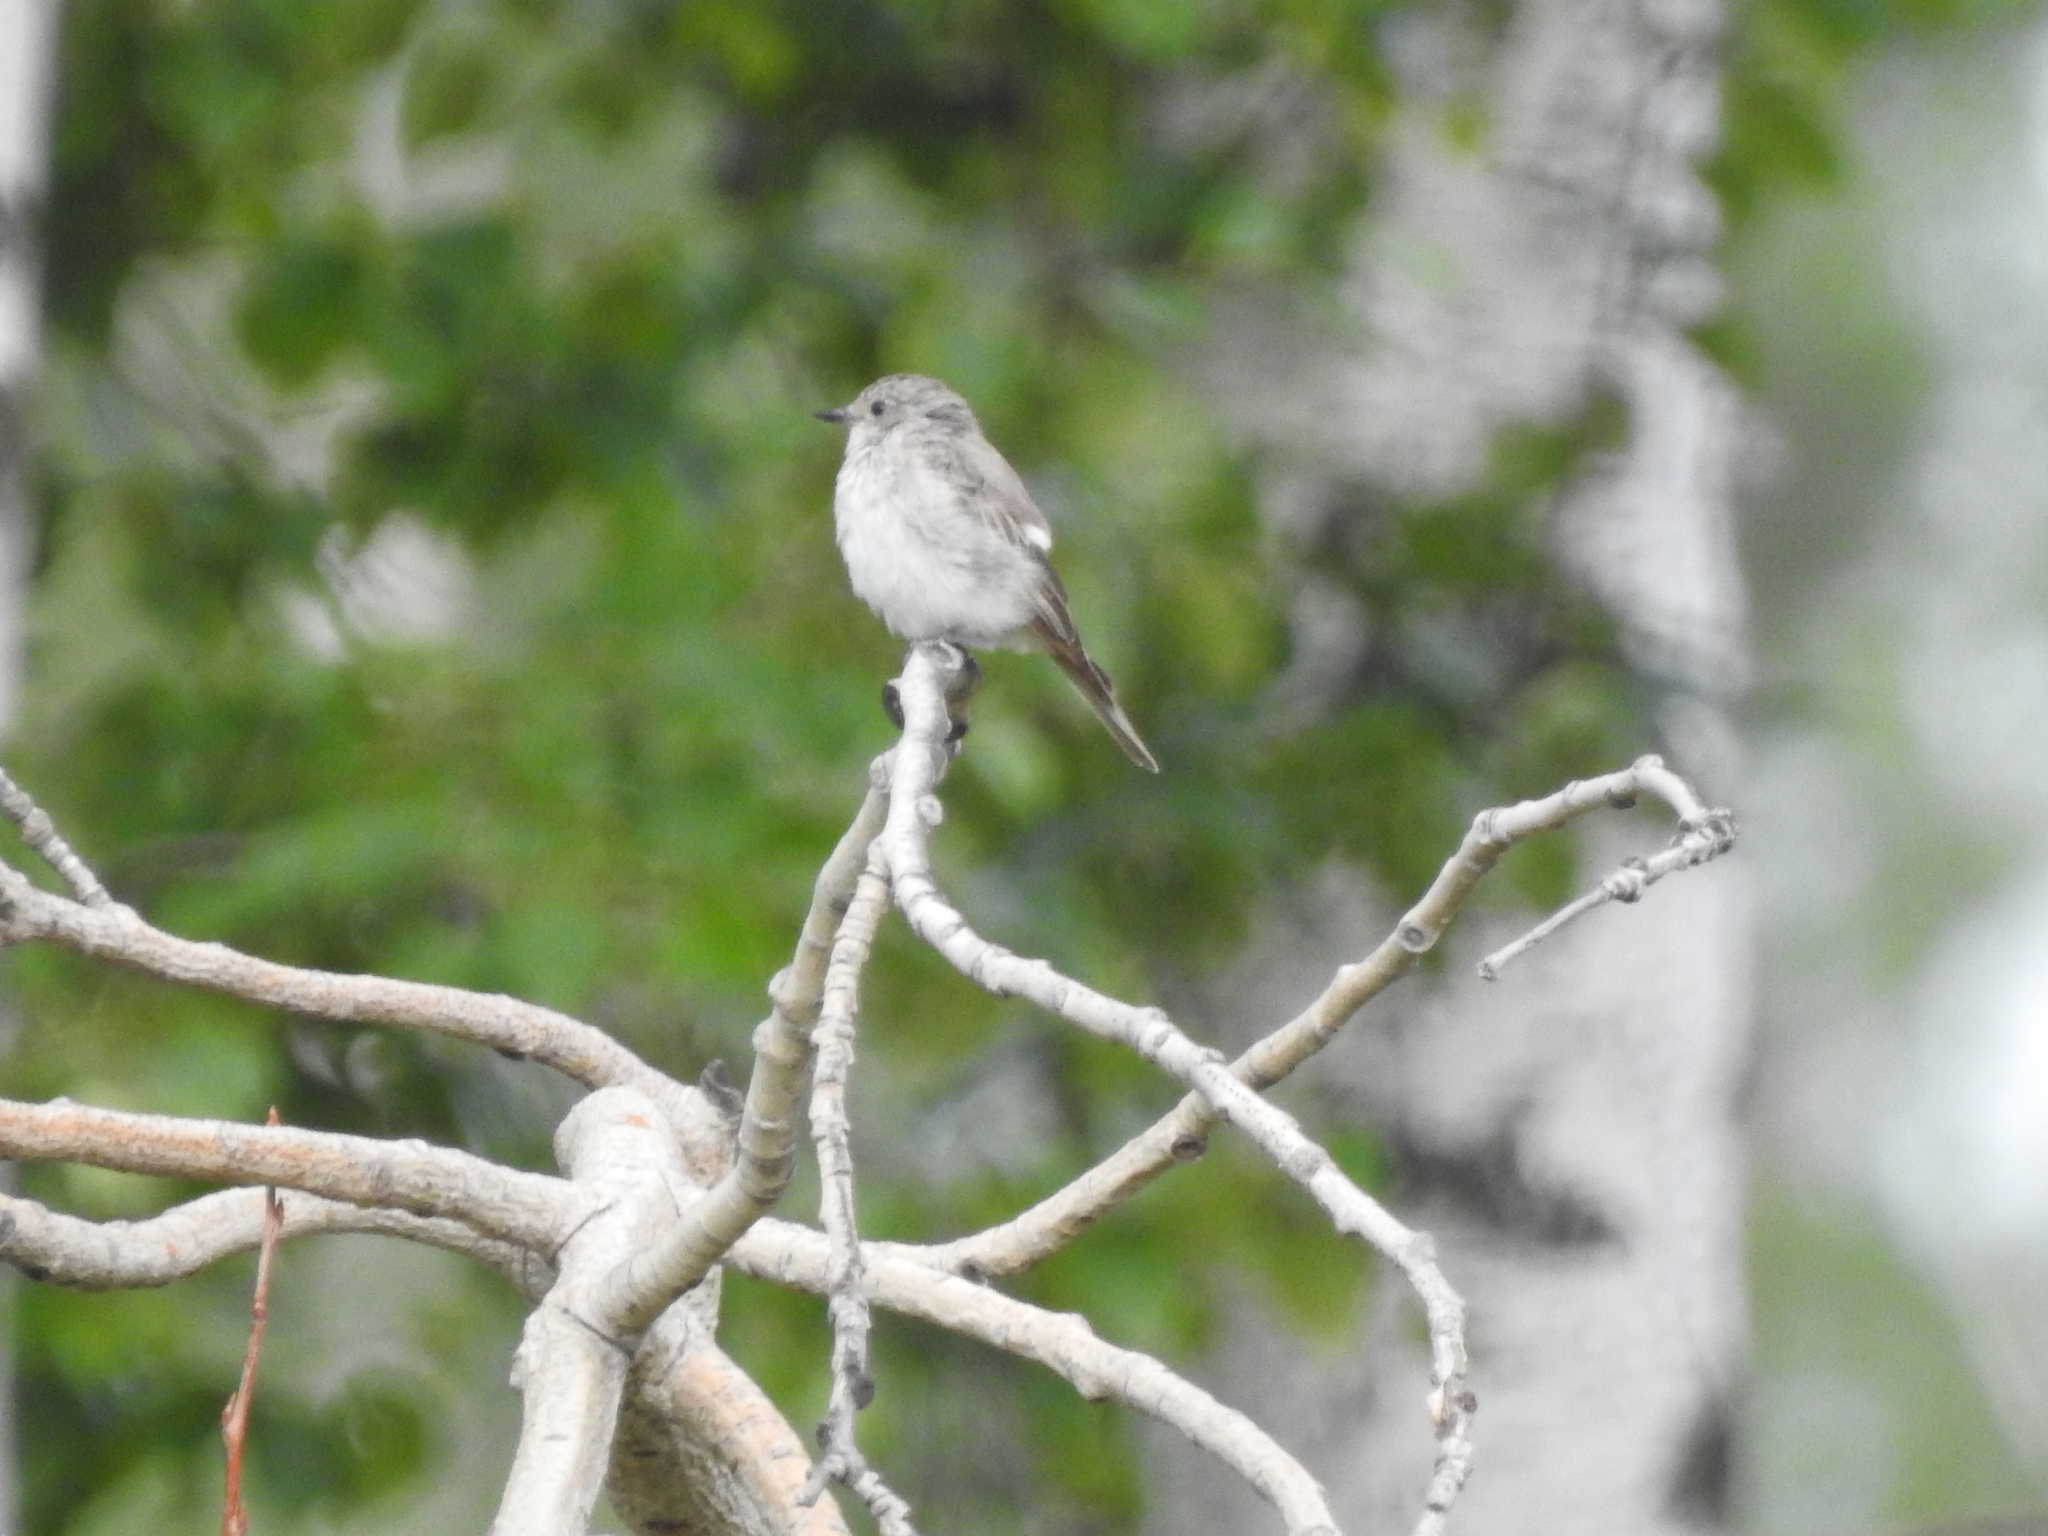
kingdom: Animalia
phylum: Chordata
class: Aves
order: Passeriformes
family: Muscicapidae
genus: Muscicapa
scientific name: Muscicapa striata
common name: Spotted flycatcher
